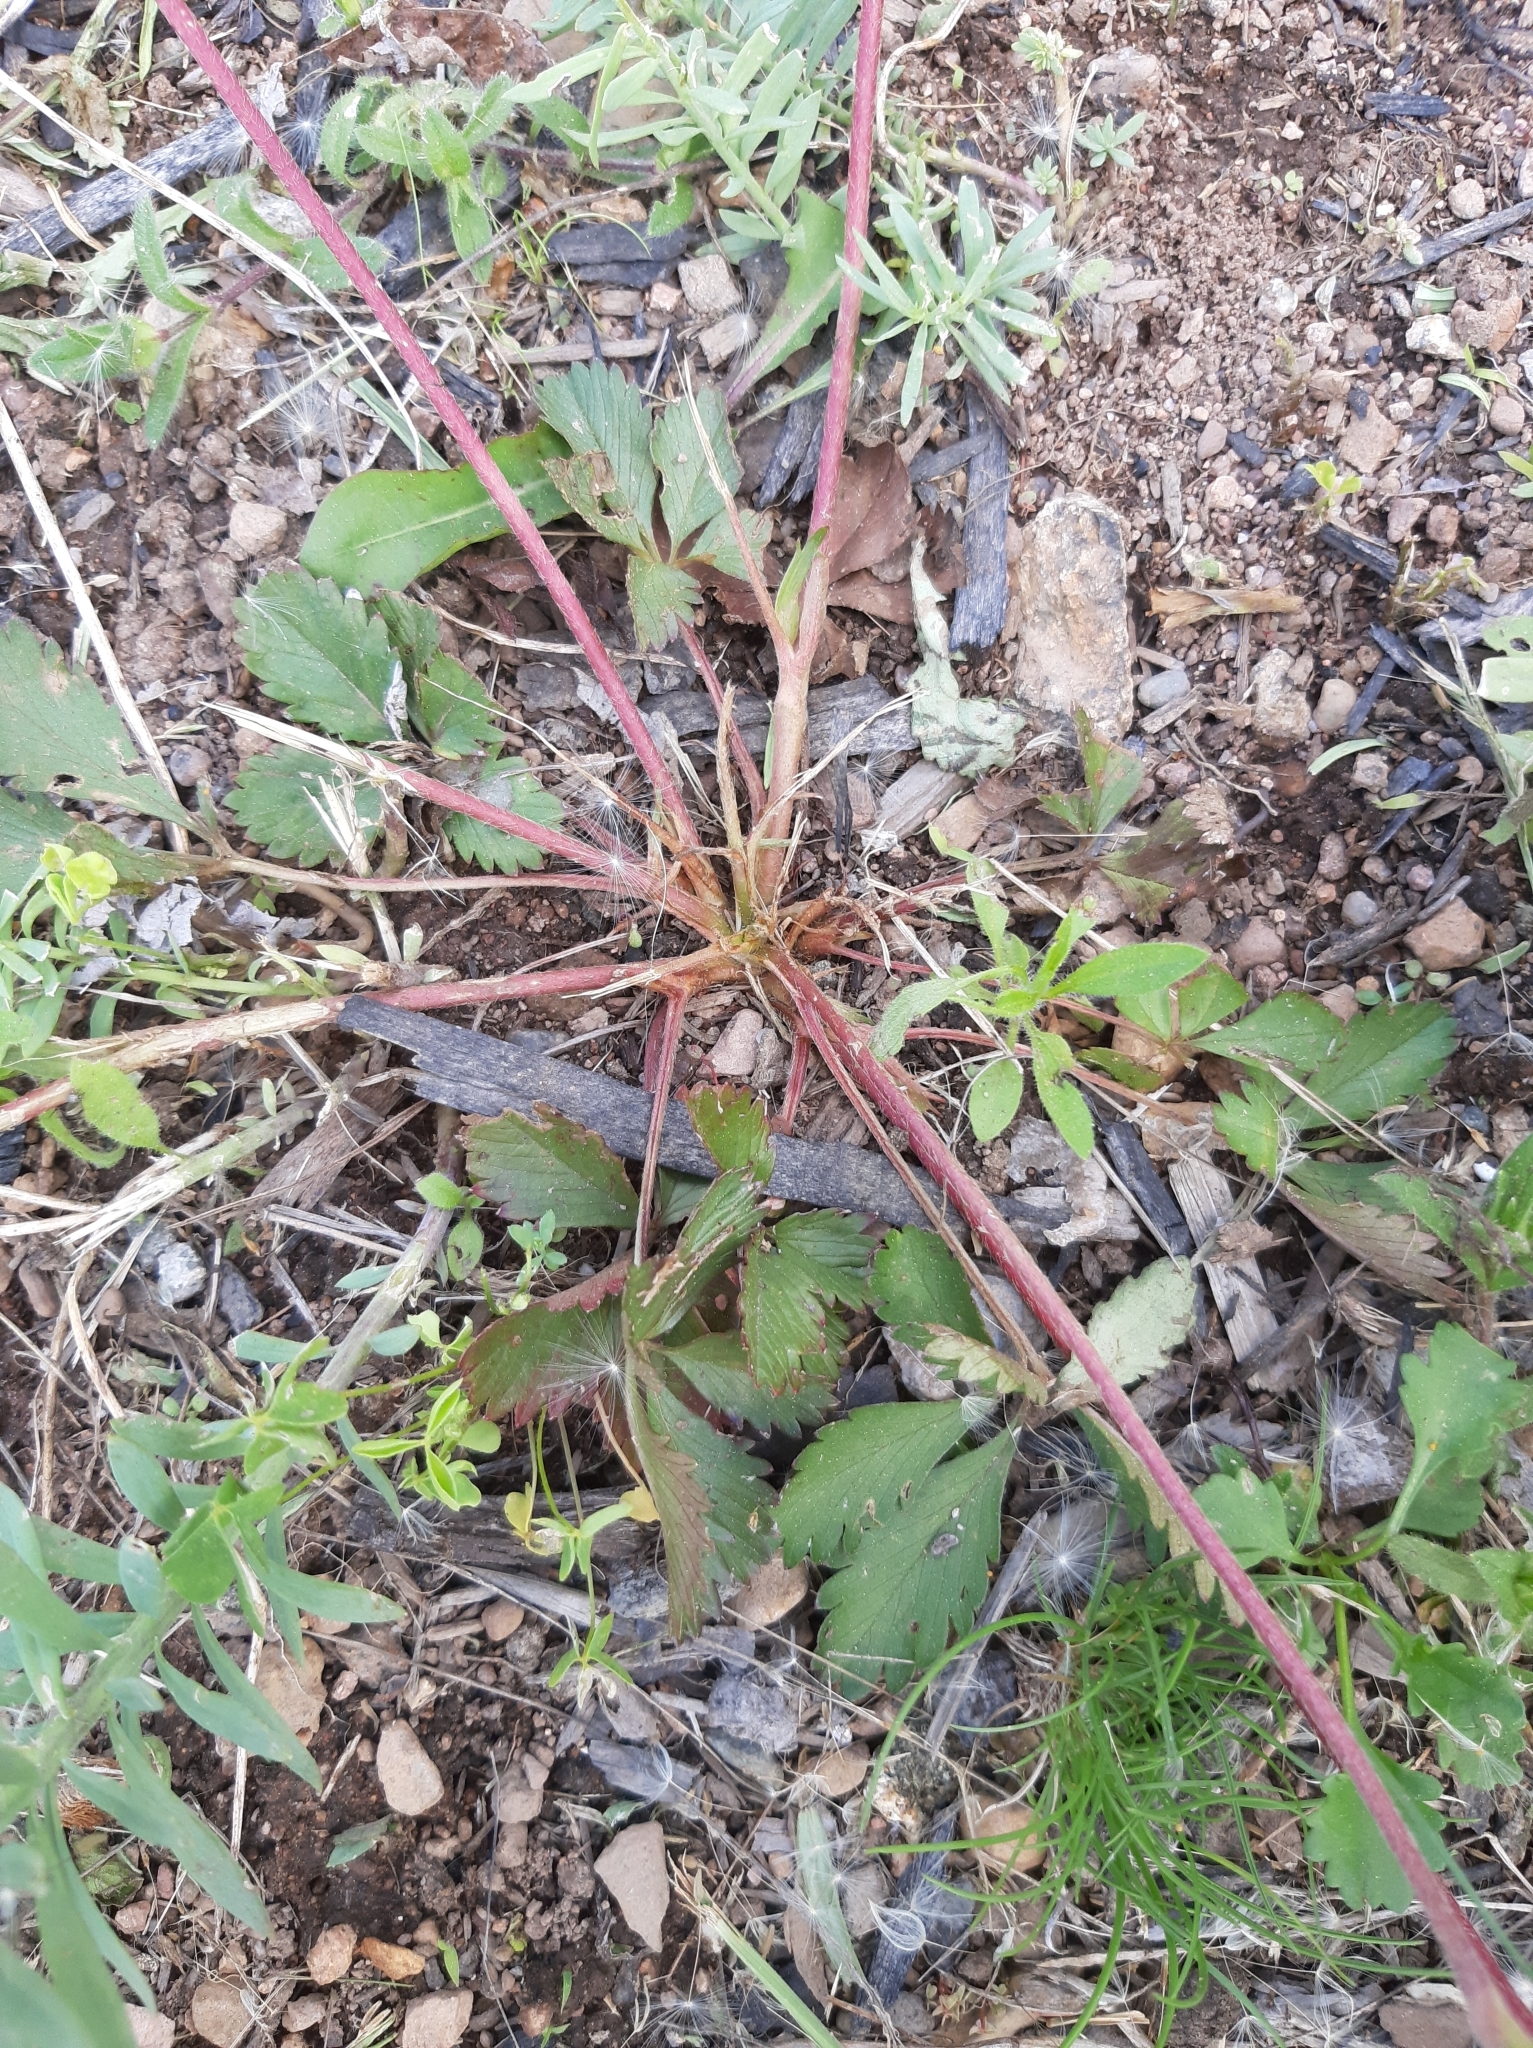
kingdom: Plantae
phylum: Tracheophyta
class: Magnoliopsida
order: Rosales
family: Rosaceae
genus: Potentilla
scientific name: Potentilla simplex
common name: Old field cinquefoil
